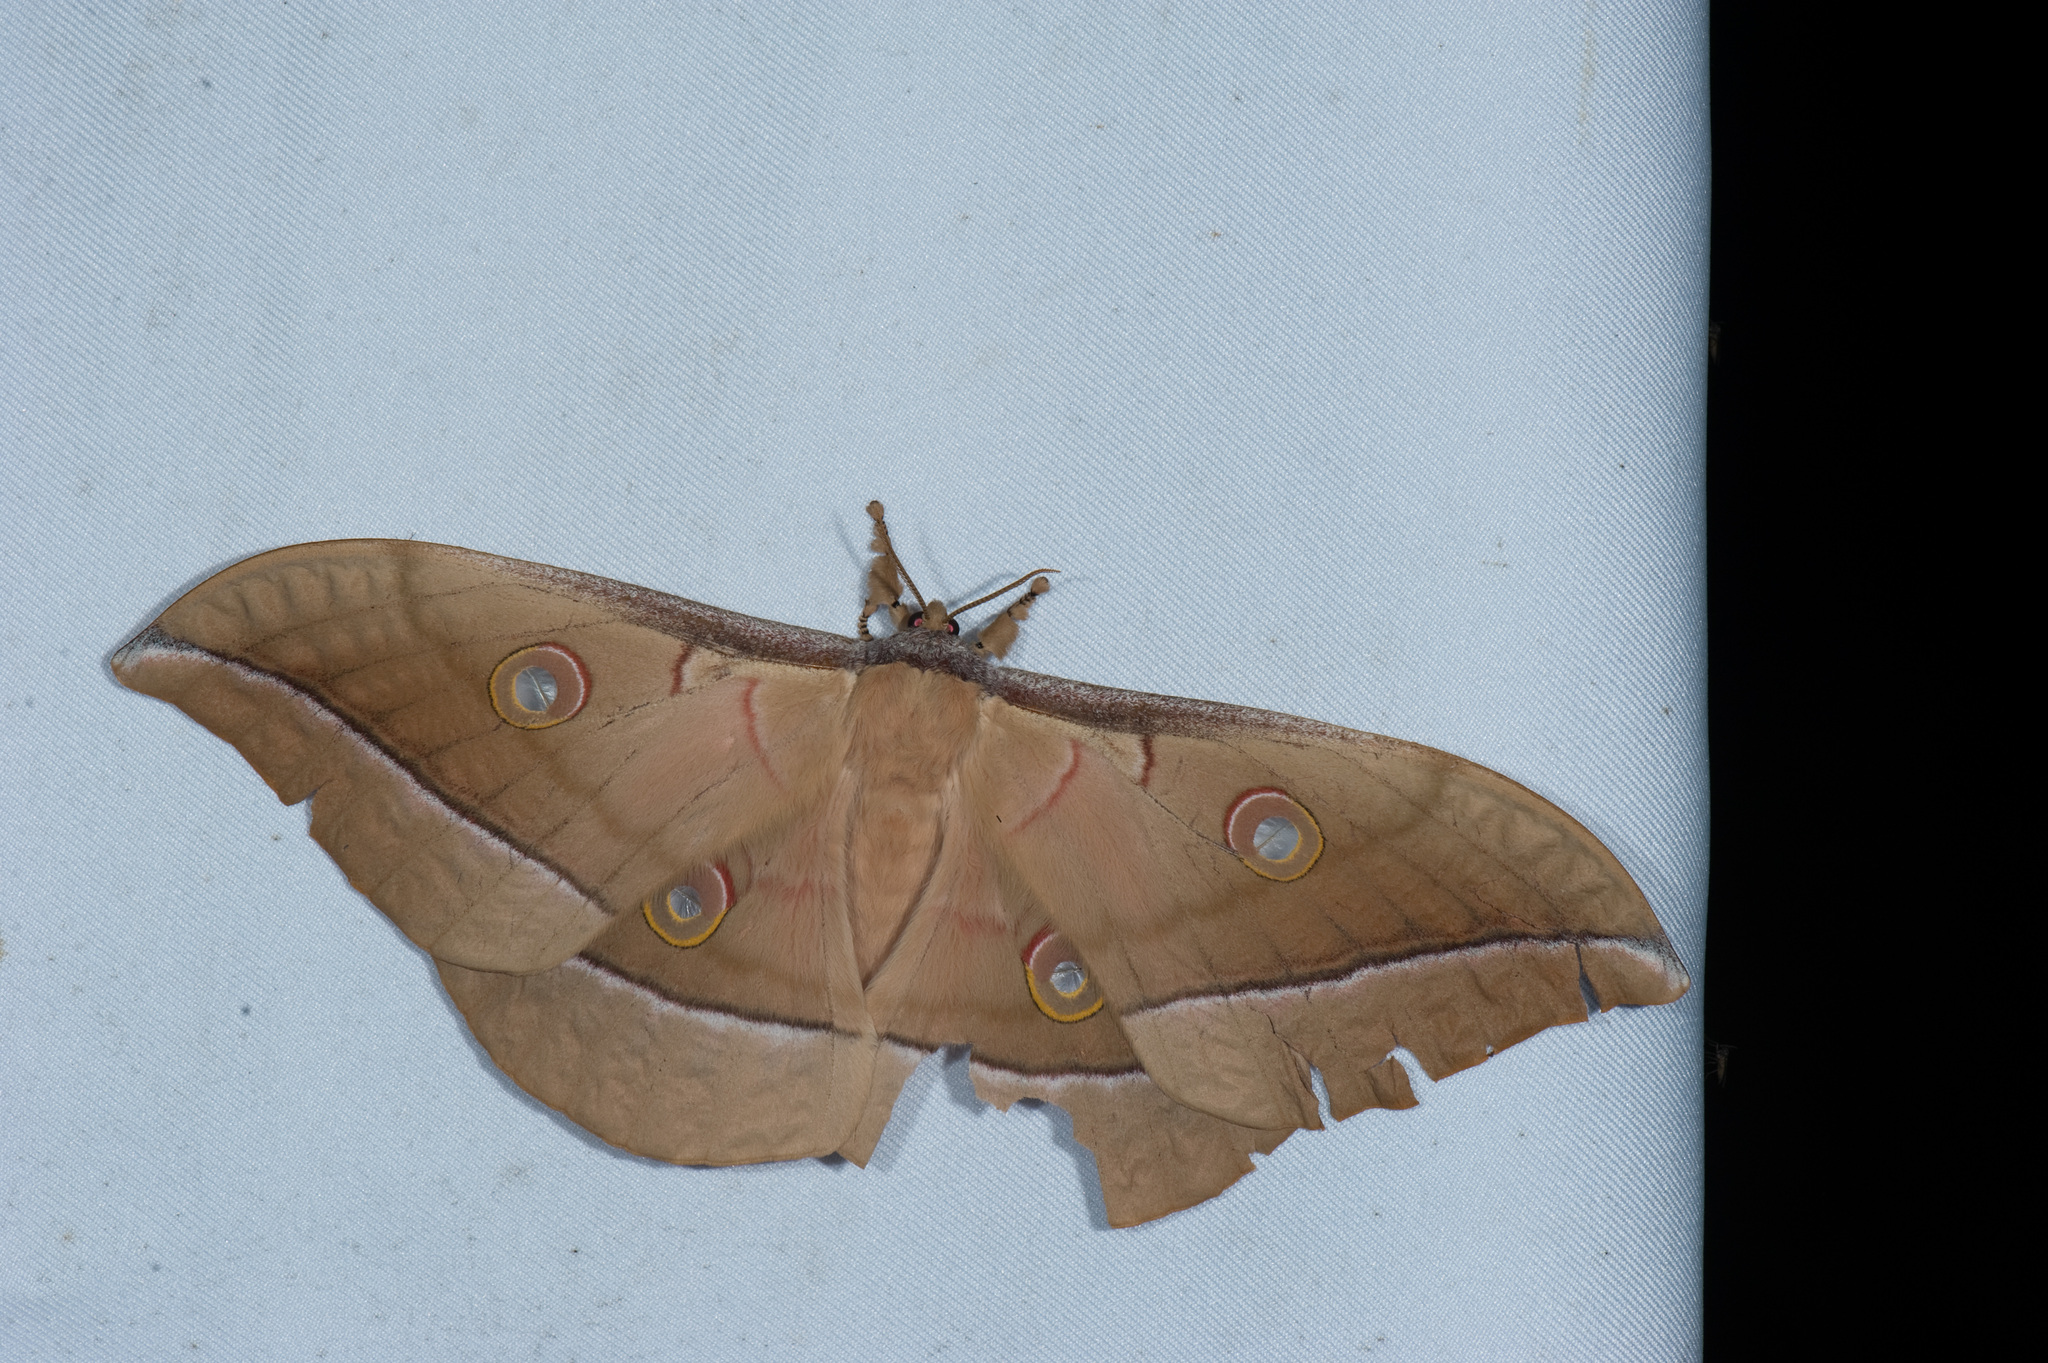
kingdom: Animalia
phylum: Arthropoda
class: Insecta
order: Lepidoptera
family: Saturniidae
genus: Antheraea
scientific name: Antheraea pernyi
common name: Chinese oak silk moth
